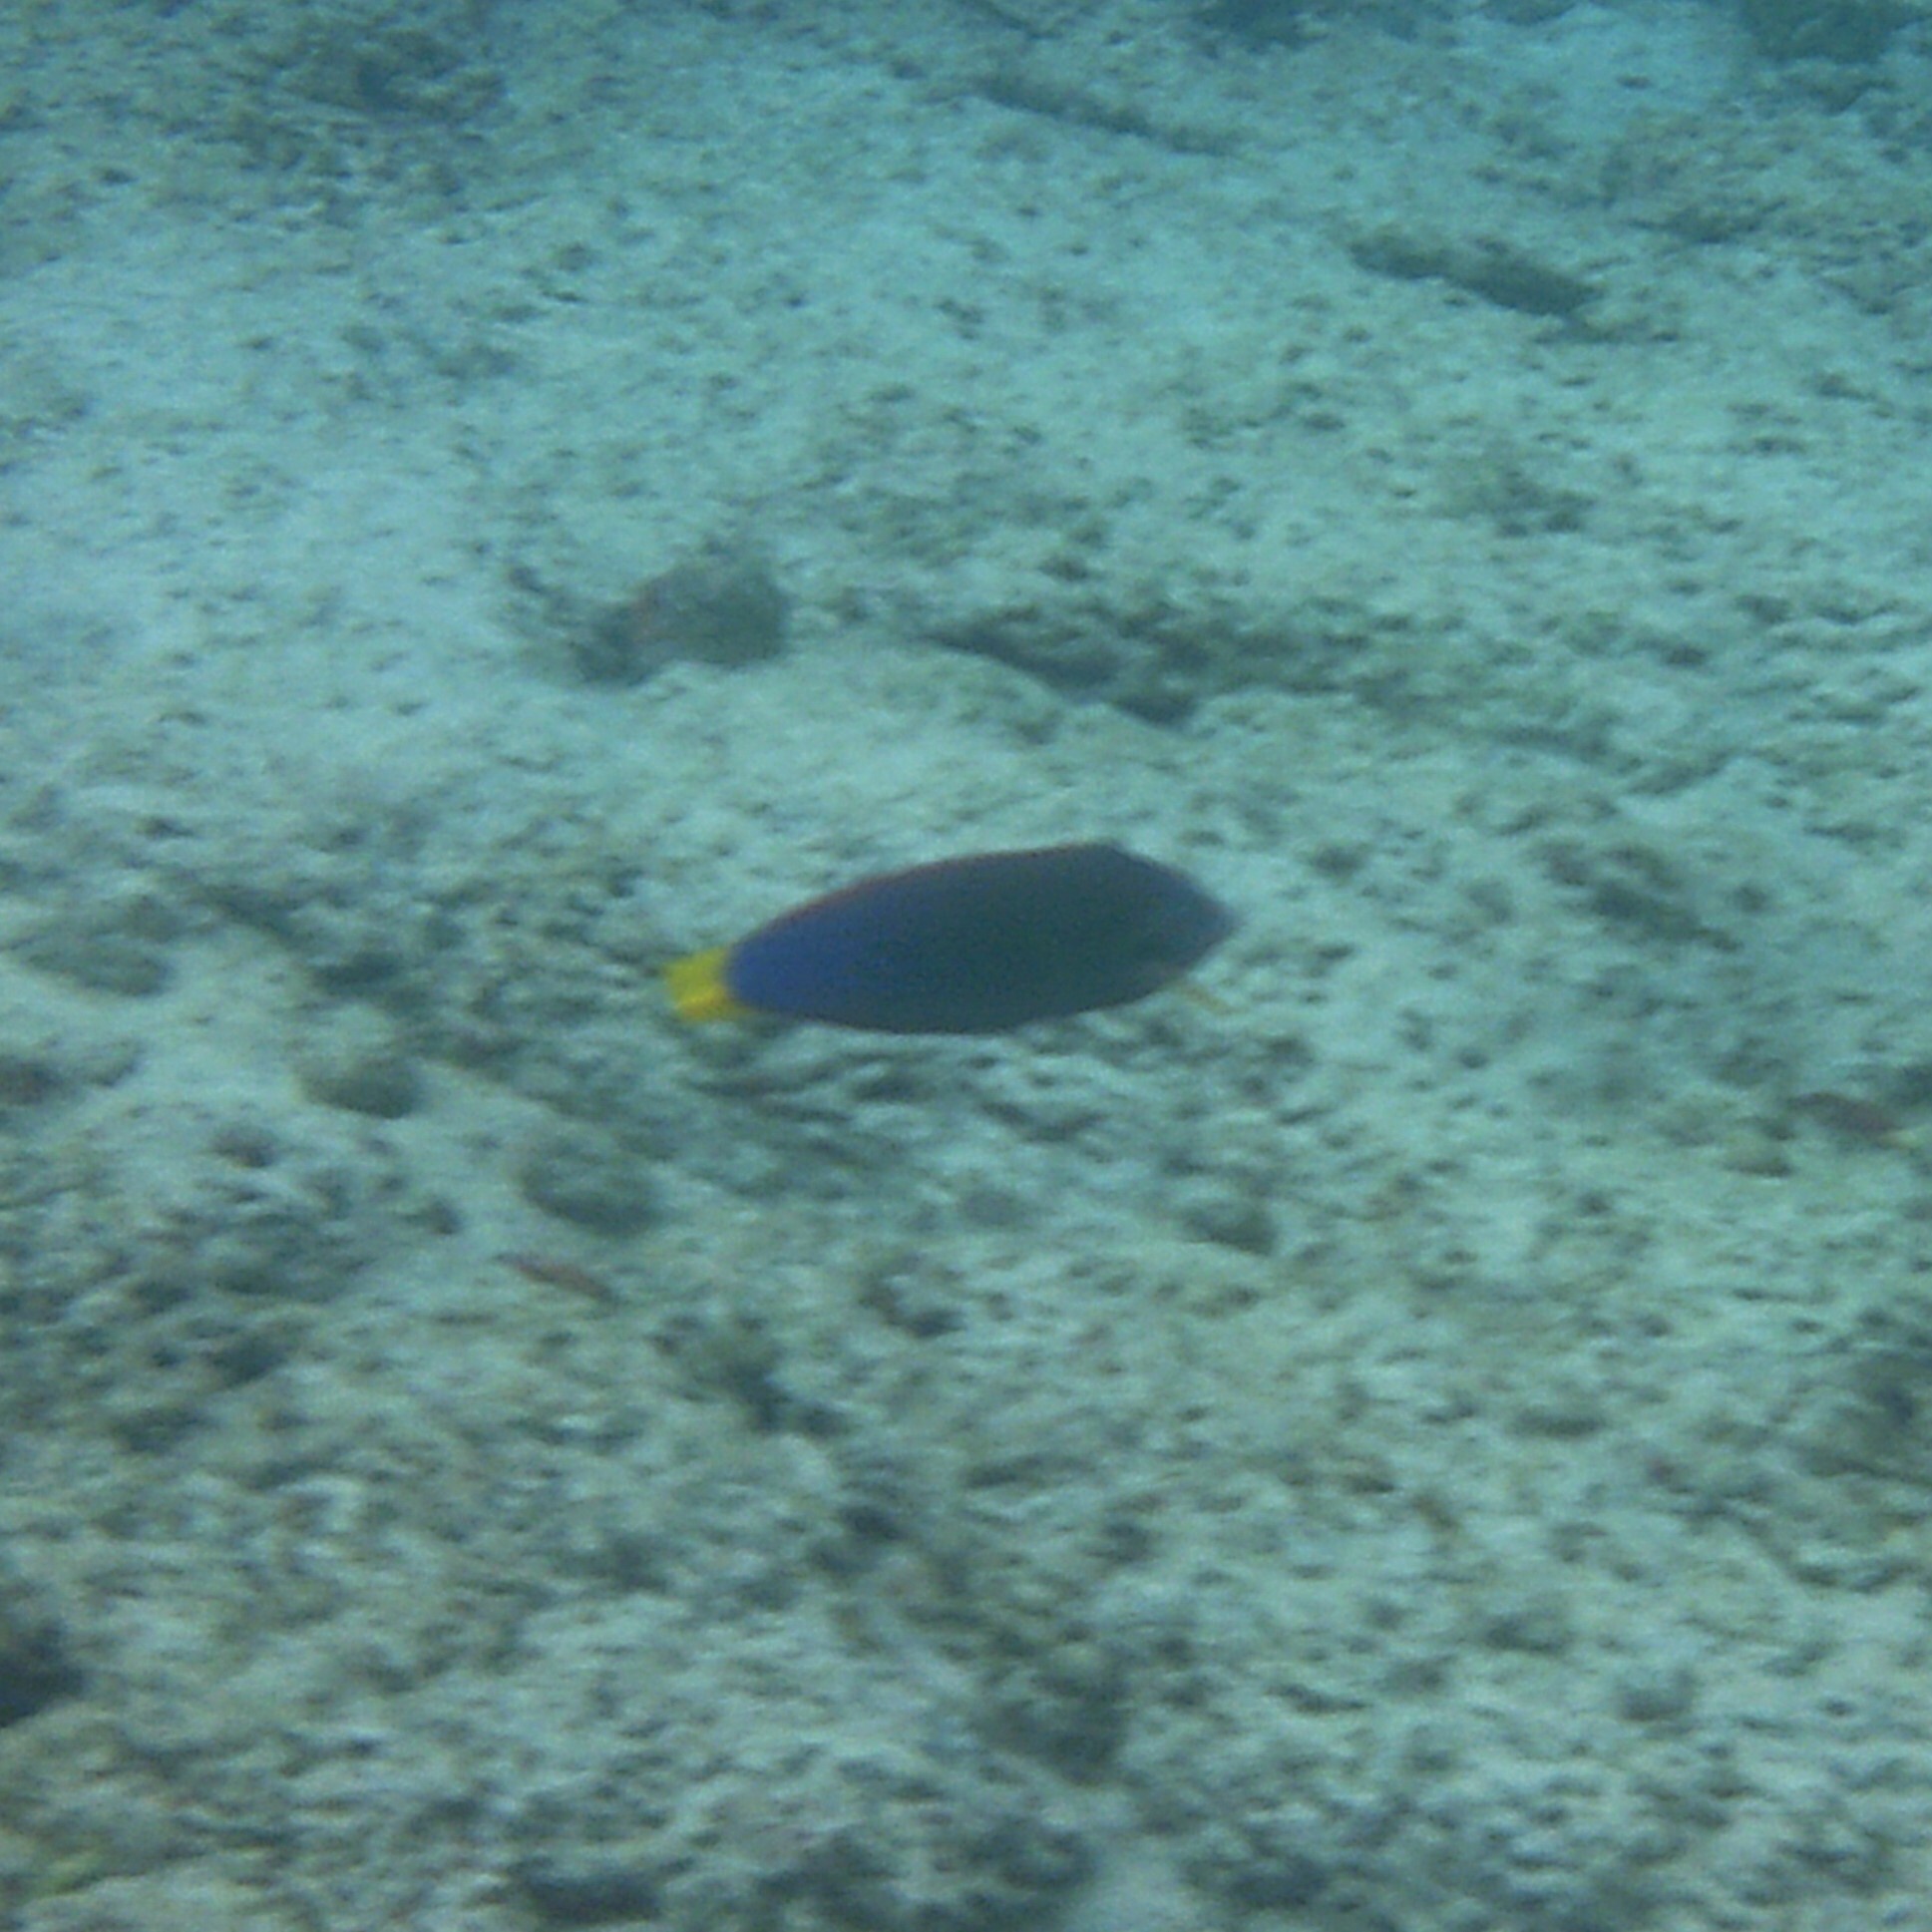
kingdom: Animalia
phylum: Chordata
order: Perciformes
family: Labridae
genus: Coris
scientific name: Coris gaimard
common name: Yellowtail coris
